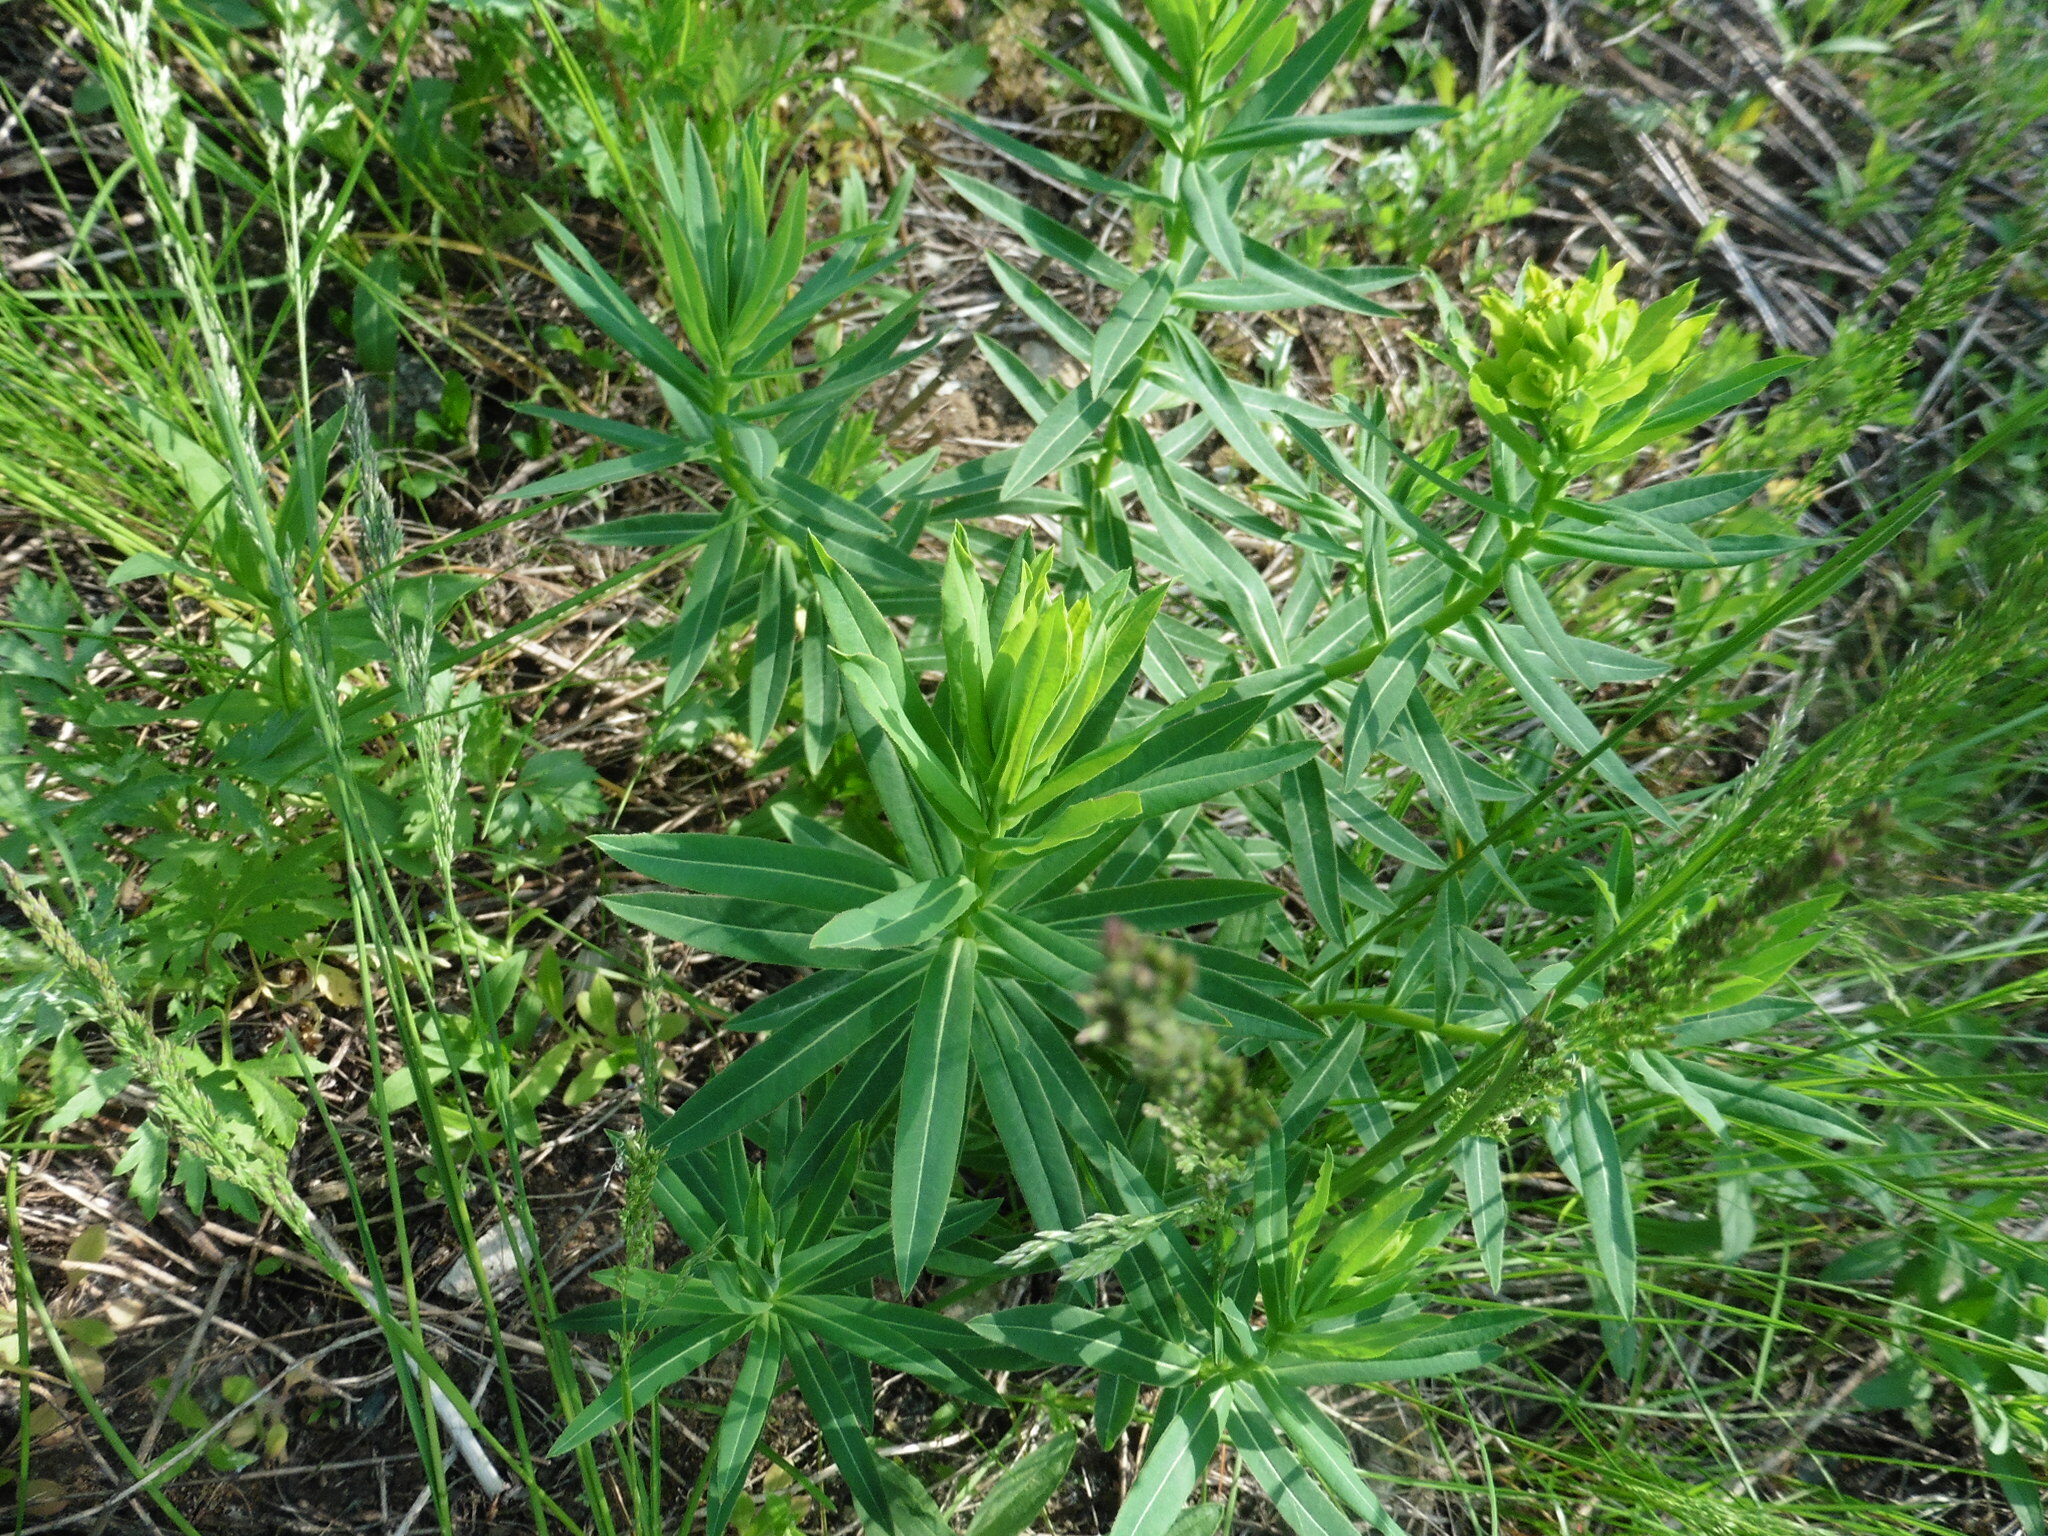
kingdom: Plantae
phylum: Tracheophyta
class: Magnoliopsida
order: Malpighiales
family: Euphorbiaceae
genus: Euphorbia
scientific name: Euphorbia semivillosa
